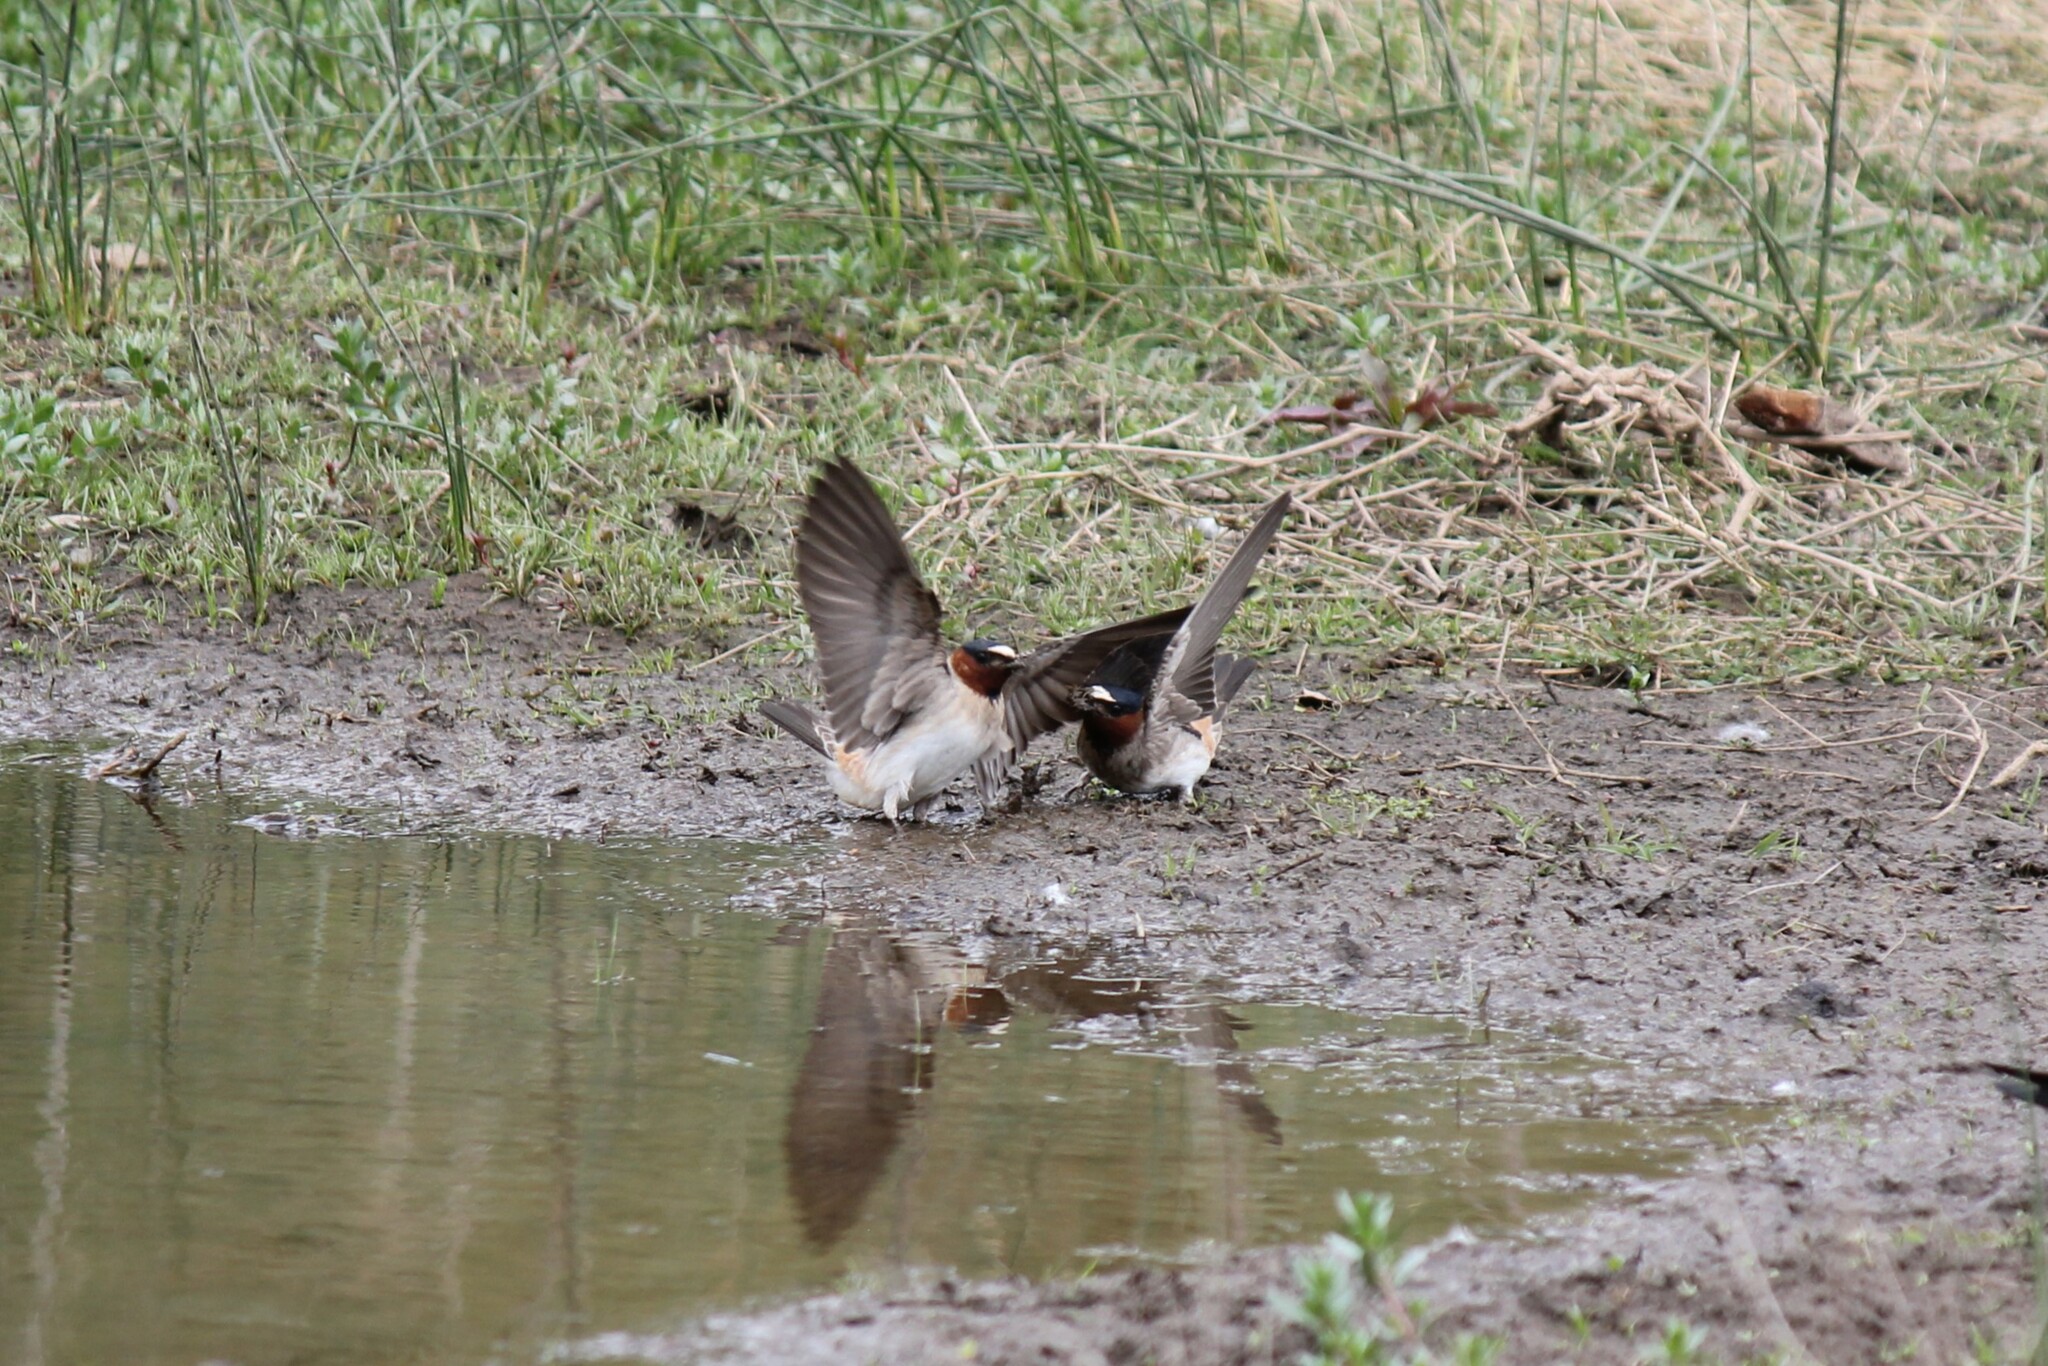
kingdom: Animalia
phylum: Chordata
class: Aves
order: Passeriformes
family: Hirundinidae
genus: Petrochelidon
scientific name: Petrochelidon pyrrhonota
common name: American cliff swallow
